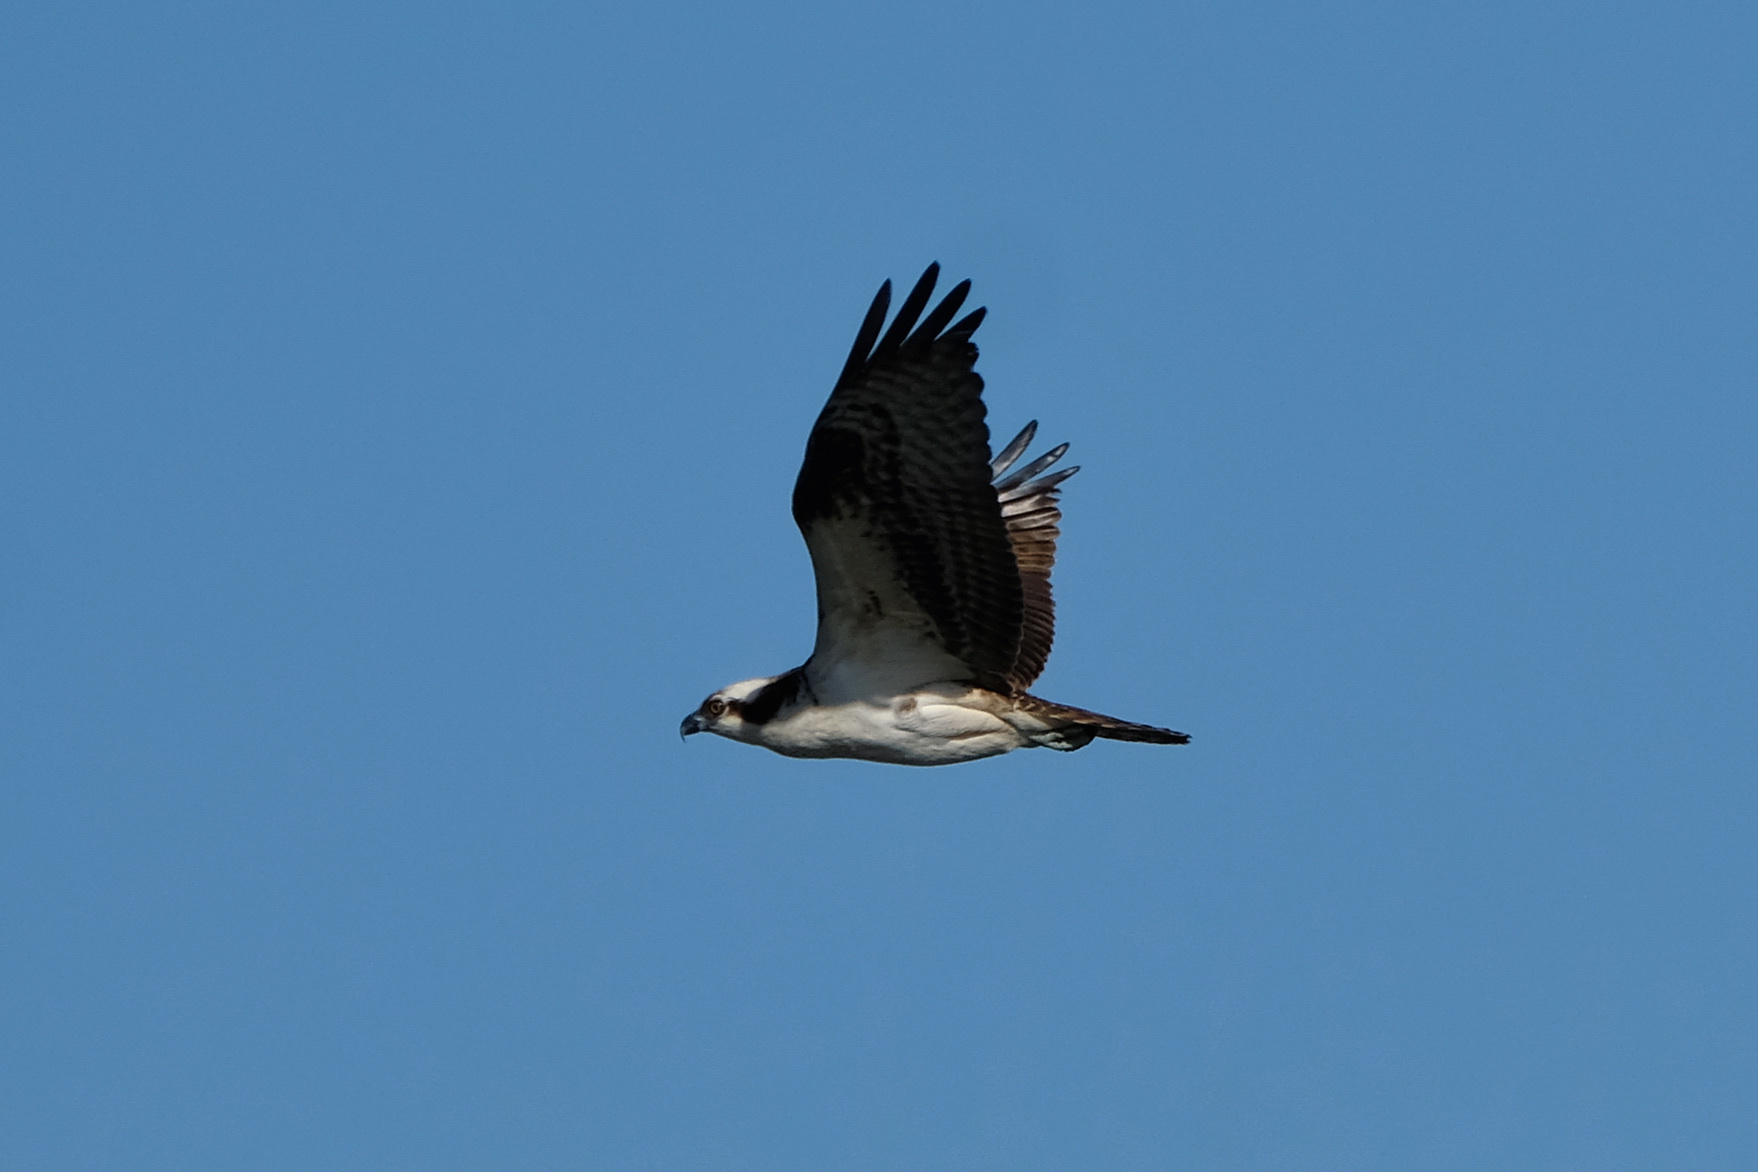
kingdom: Animalia
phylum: Chordata
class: Aves
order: Accipitriformes
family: Pandionidae
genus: Pandion
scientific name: Pandion haliaetus
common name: Osprey
